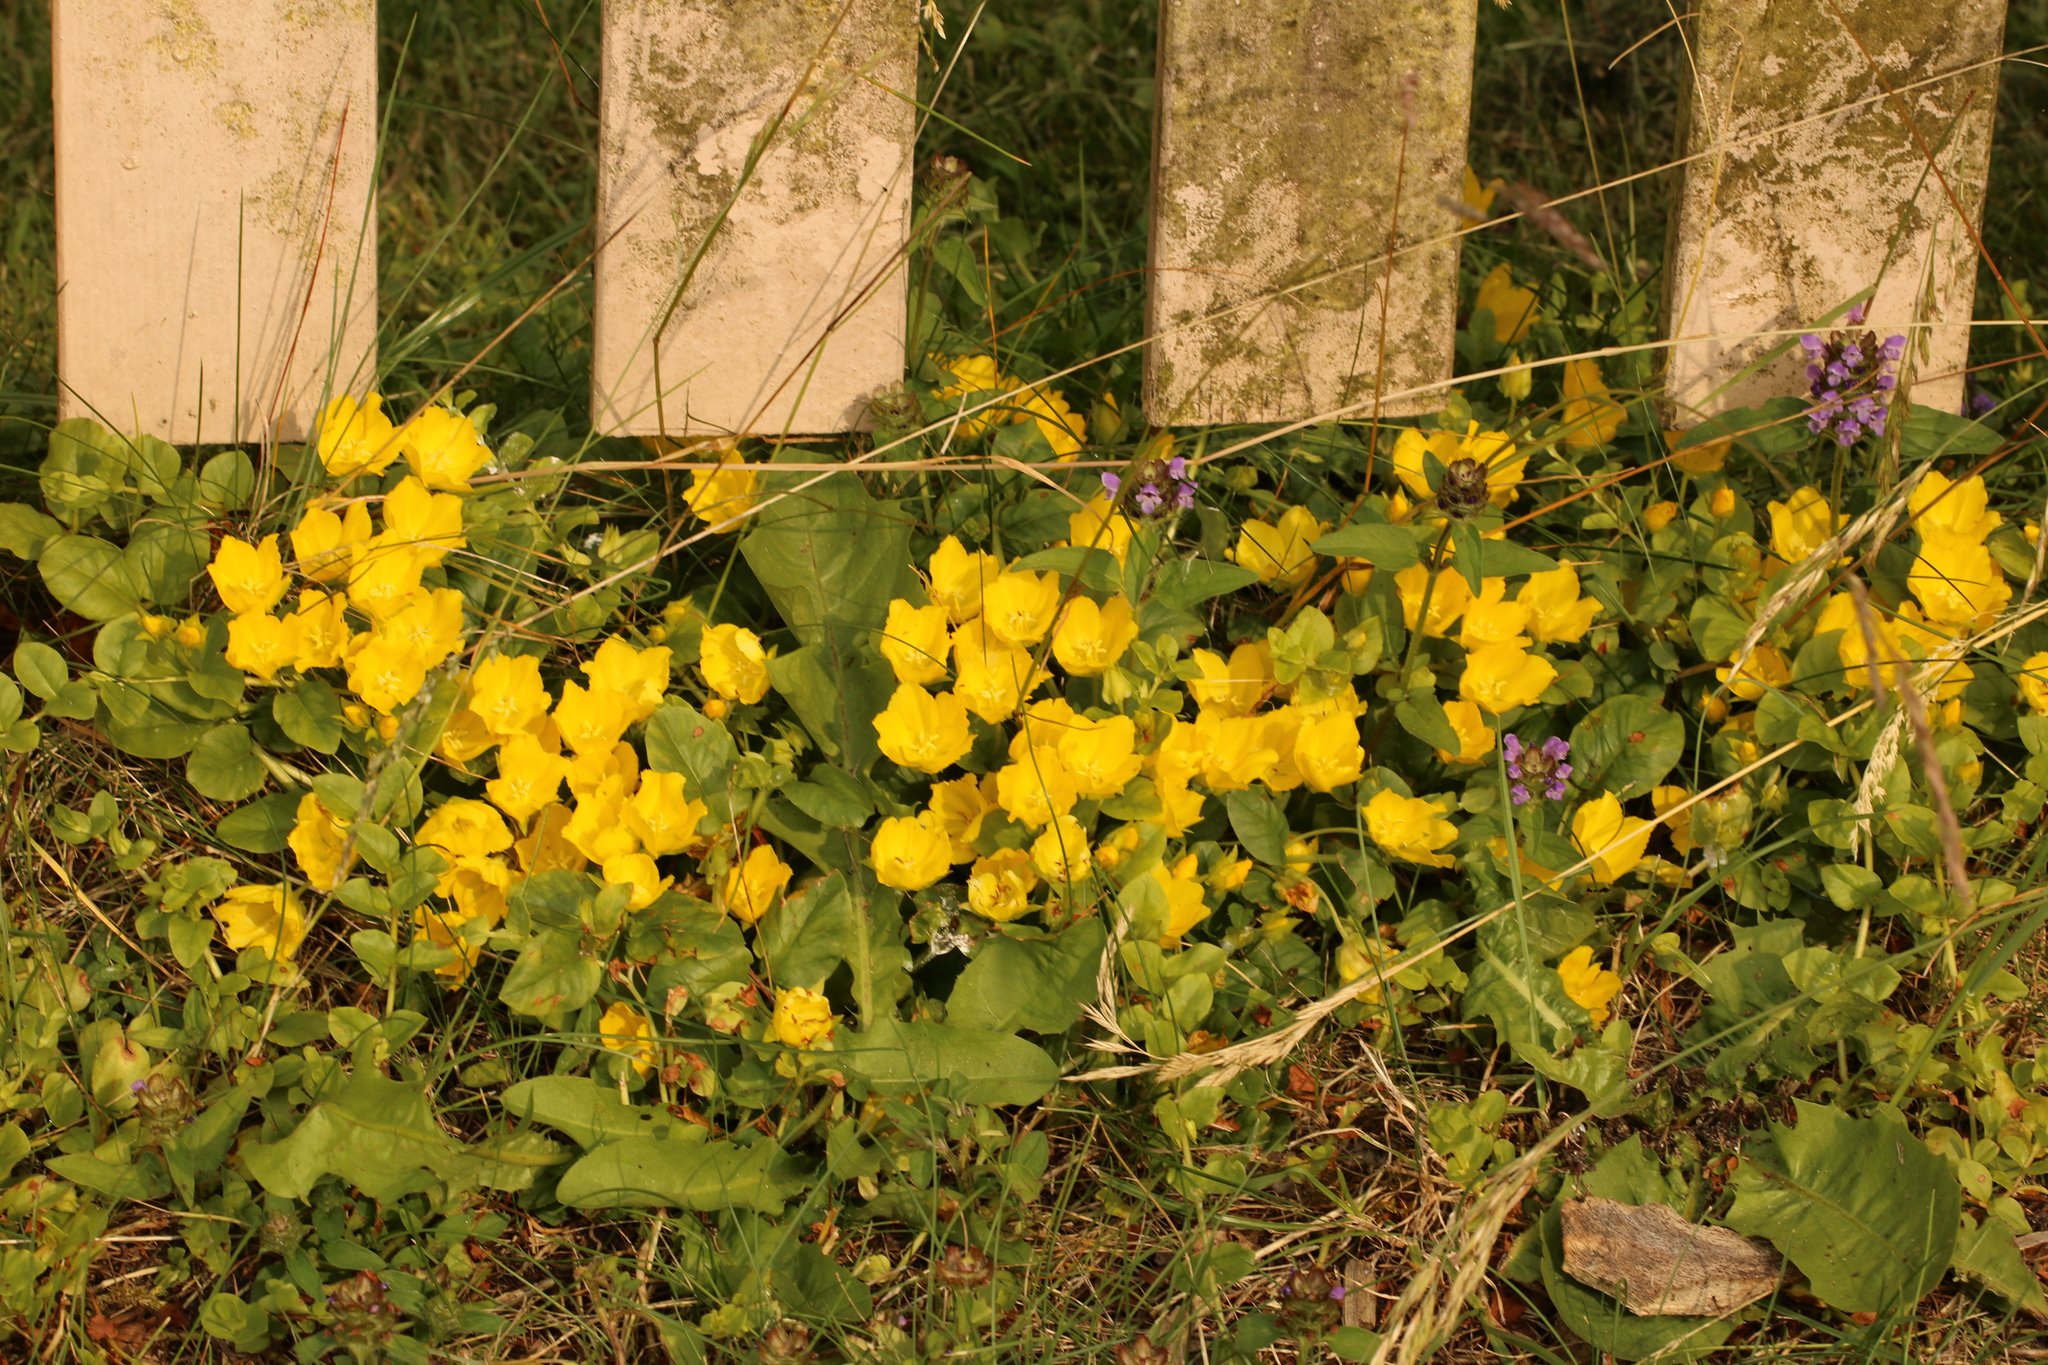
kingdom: Plantae
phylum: Tracheophyta
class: Magnoliopsida
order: Ericales
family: Primulaceae
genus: Lysimachia
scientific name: Lysimachia nummularia
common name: Moneywort
